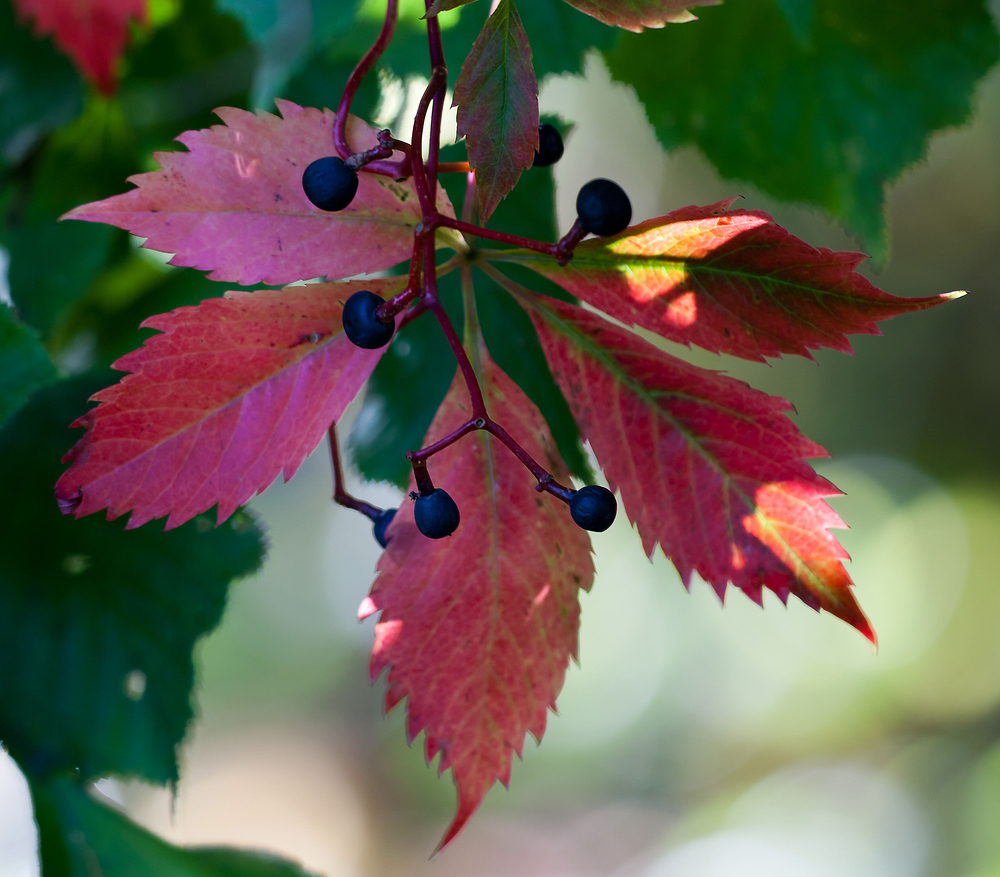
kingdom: Plantae
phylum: Tracheophyta
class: Magnoliopsida
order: Vitales
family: Vitaceae
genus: Parthenocissus
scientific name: Parthenocissus inserta
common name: False virginia-creeper
